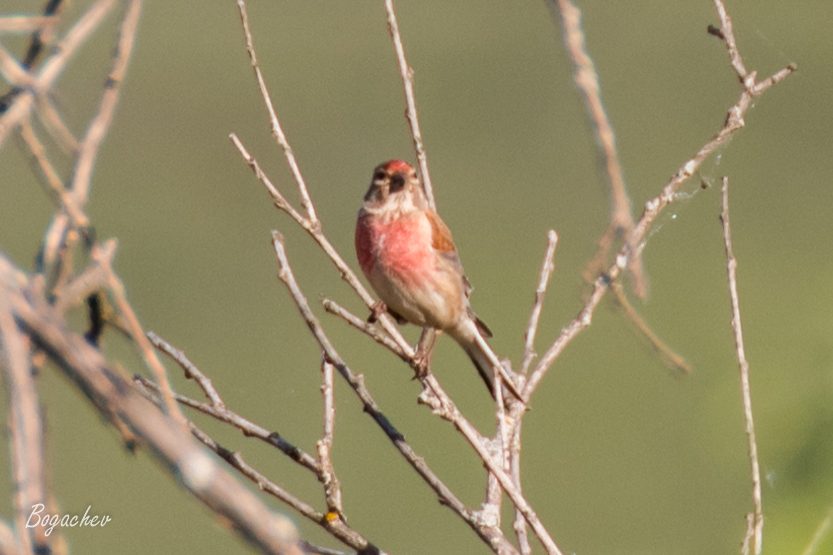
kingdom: Animalia
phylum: Chordata
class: Aves
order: Passeriformes
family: Fringillidae
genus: Linaria
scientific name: Linaria cannabina
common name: Common linnet
